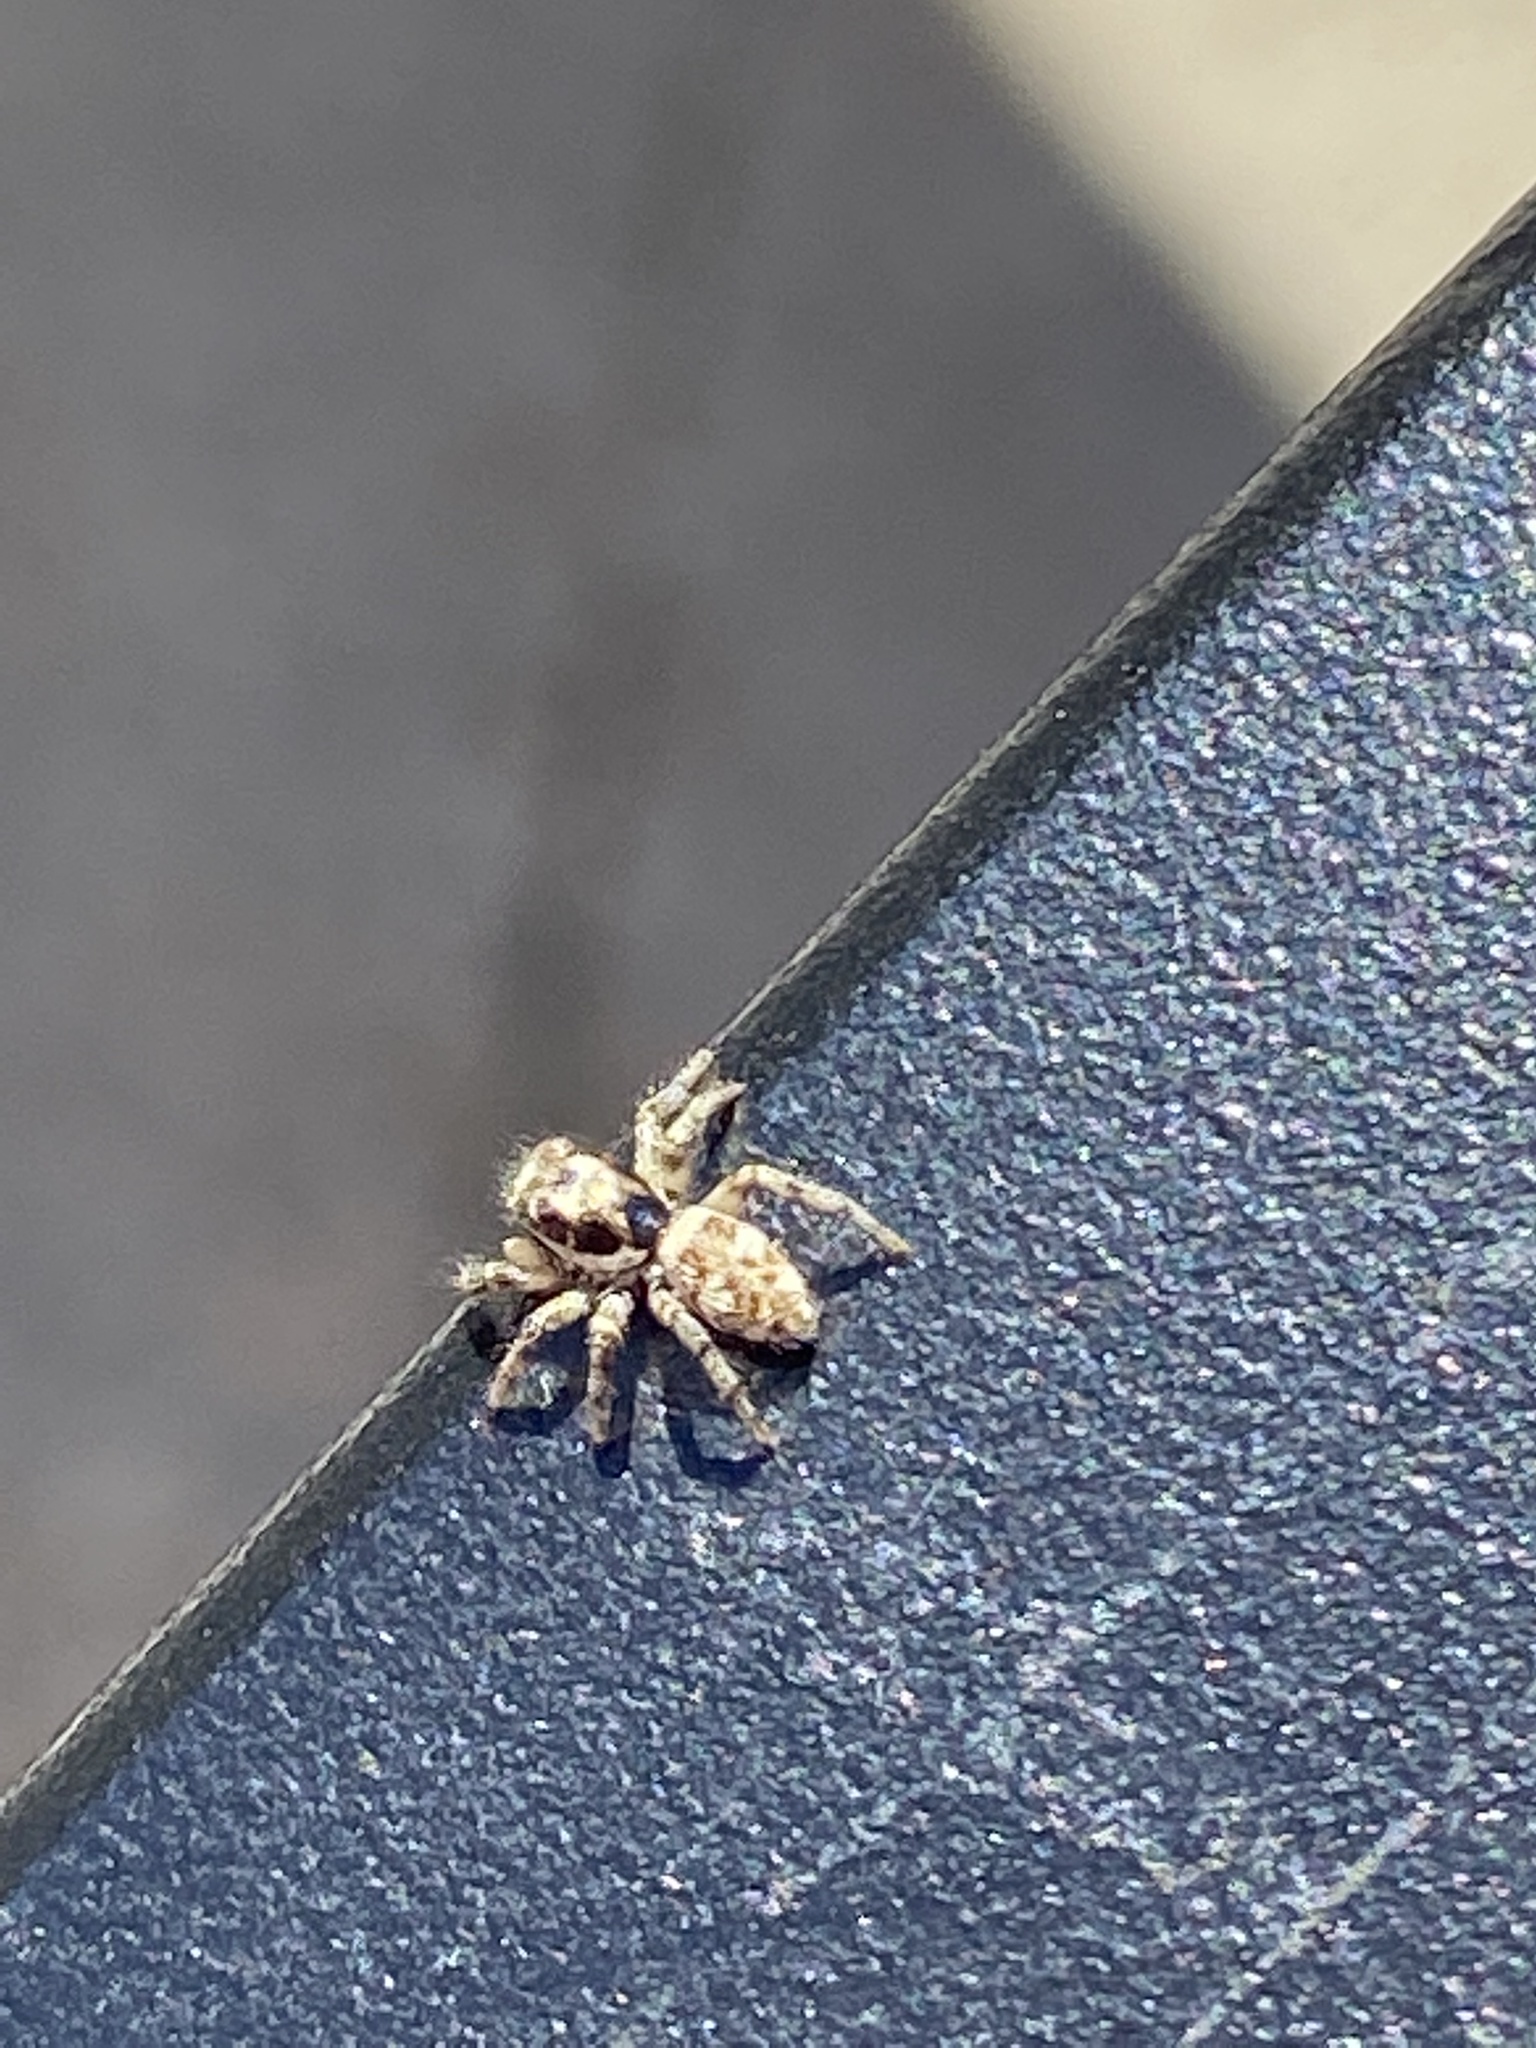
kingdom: Animalia
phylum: Arthropoda
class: Arachnida
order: Araneae
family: Salticidae
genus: Salticus
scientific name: Salticus scenicus
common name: Zebra jumper
